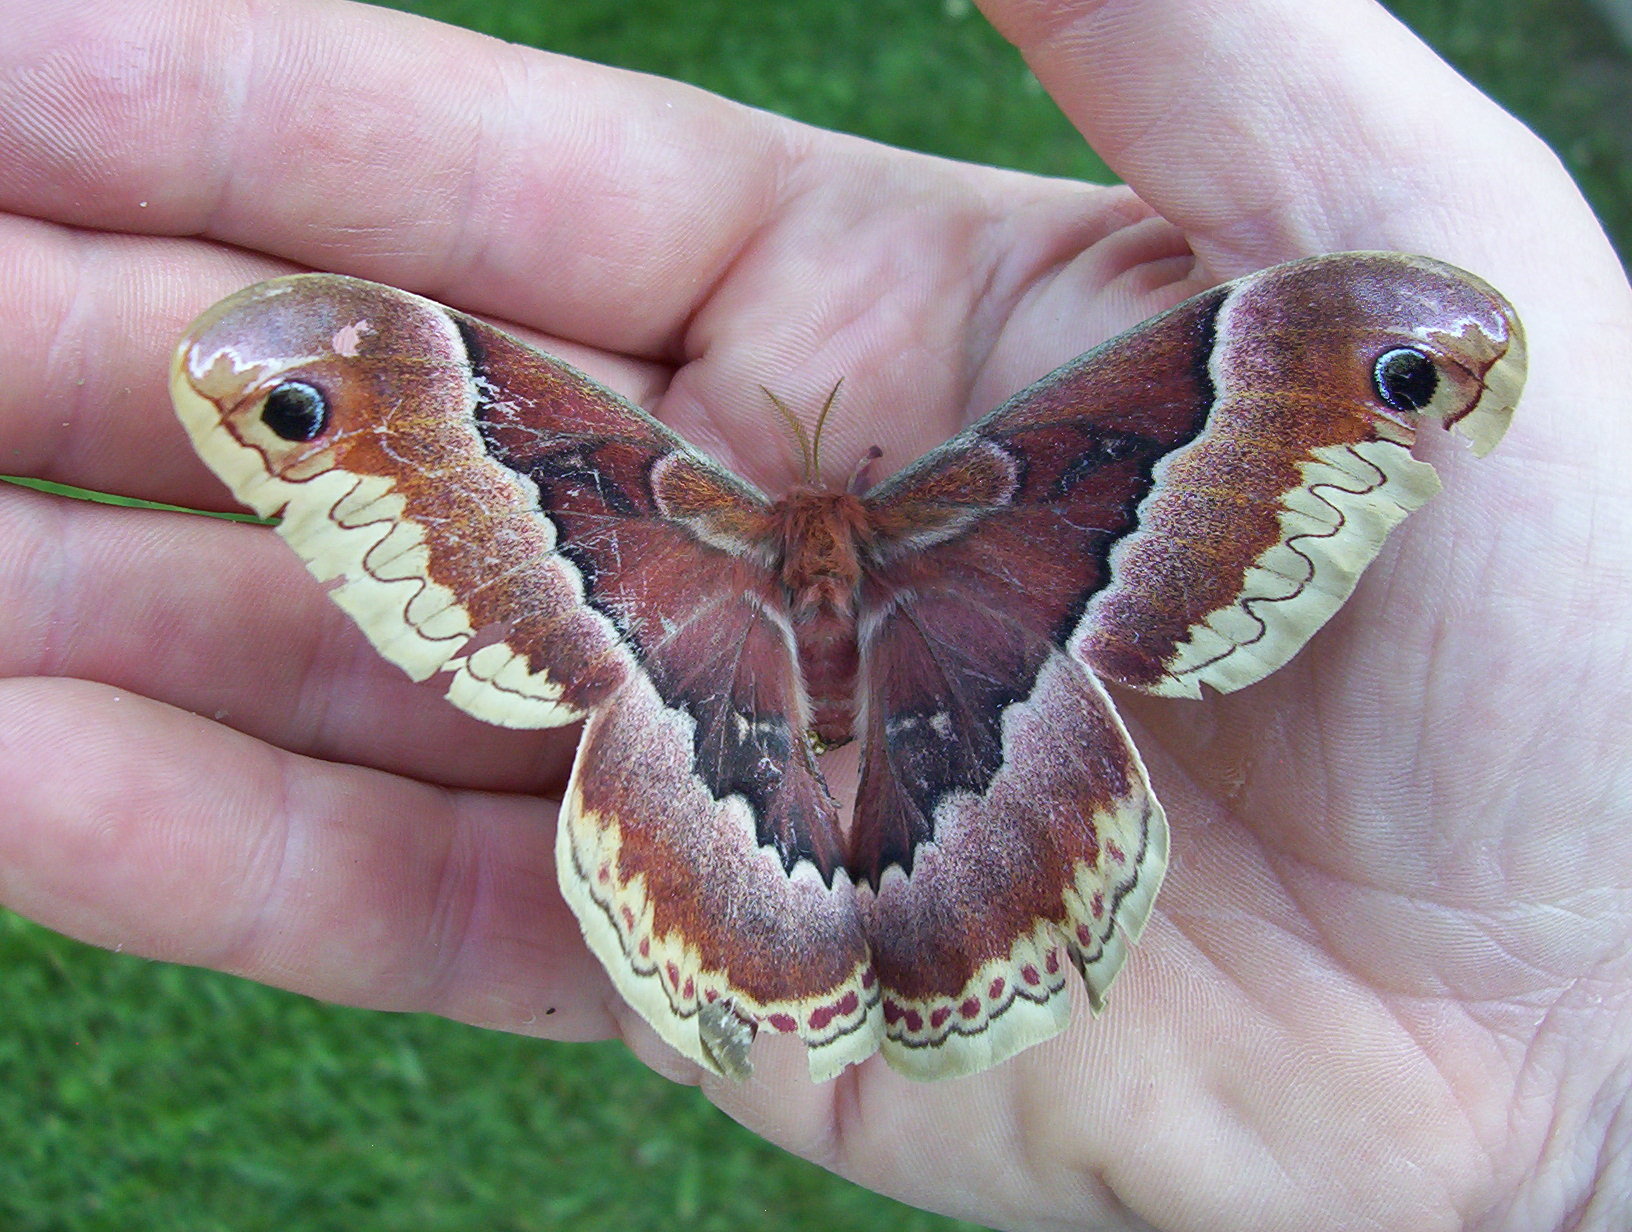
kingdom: Animalia
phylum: Arthropoda
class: Insecta
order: Lepidoptera
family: Saturniidae
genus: Callosamia
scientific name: Callosamia promethea
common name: Promethea silkmoth
